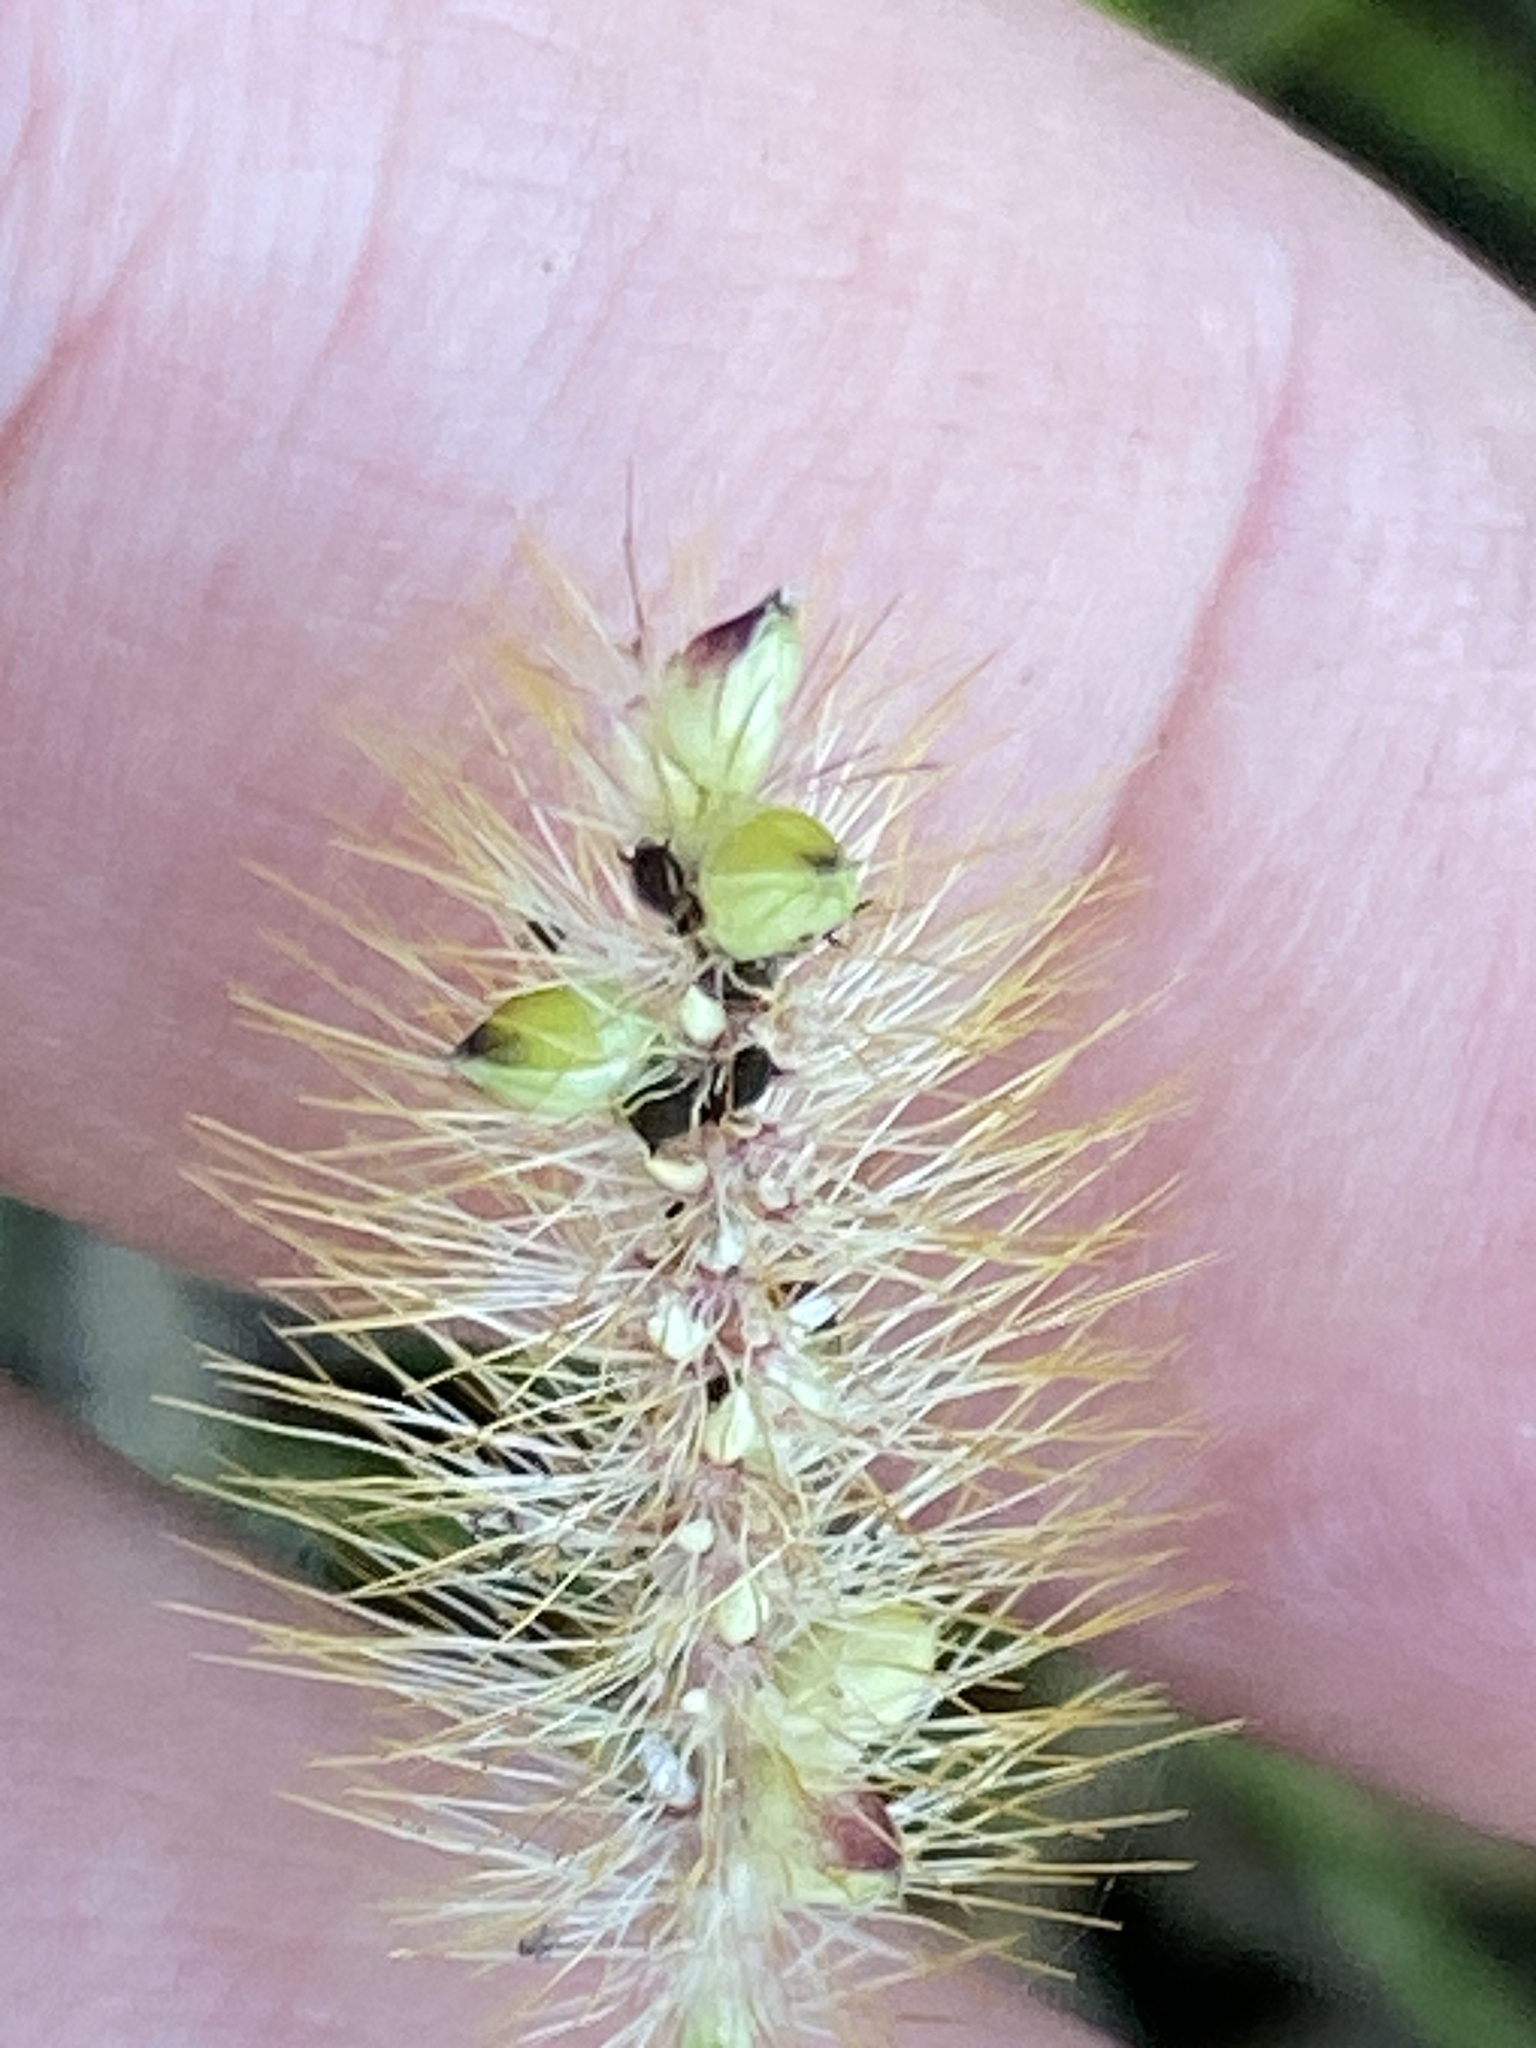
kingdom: Plantae
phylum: Tracheophyta
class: Liliopsida
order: Poales
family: Poaceae
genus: Setaria
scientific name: Setaria surgens
